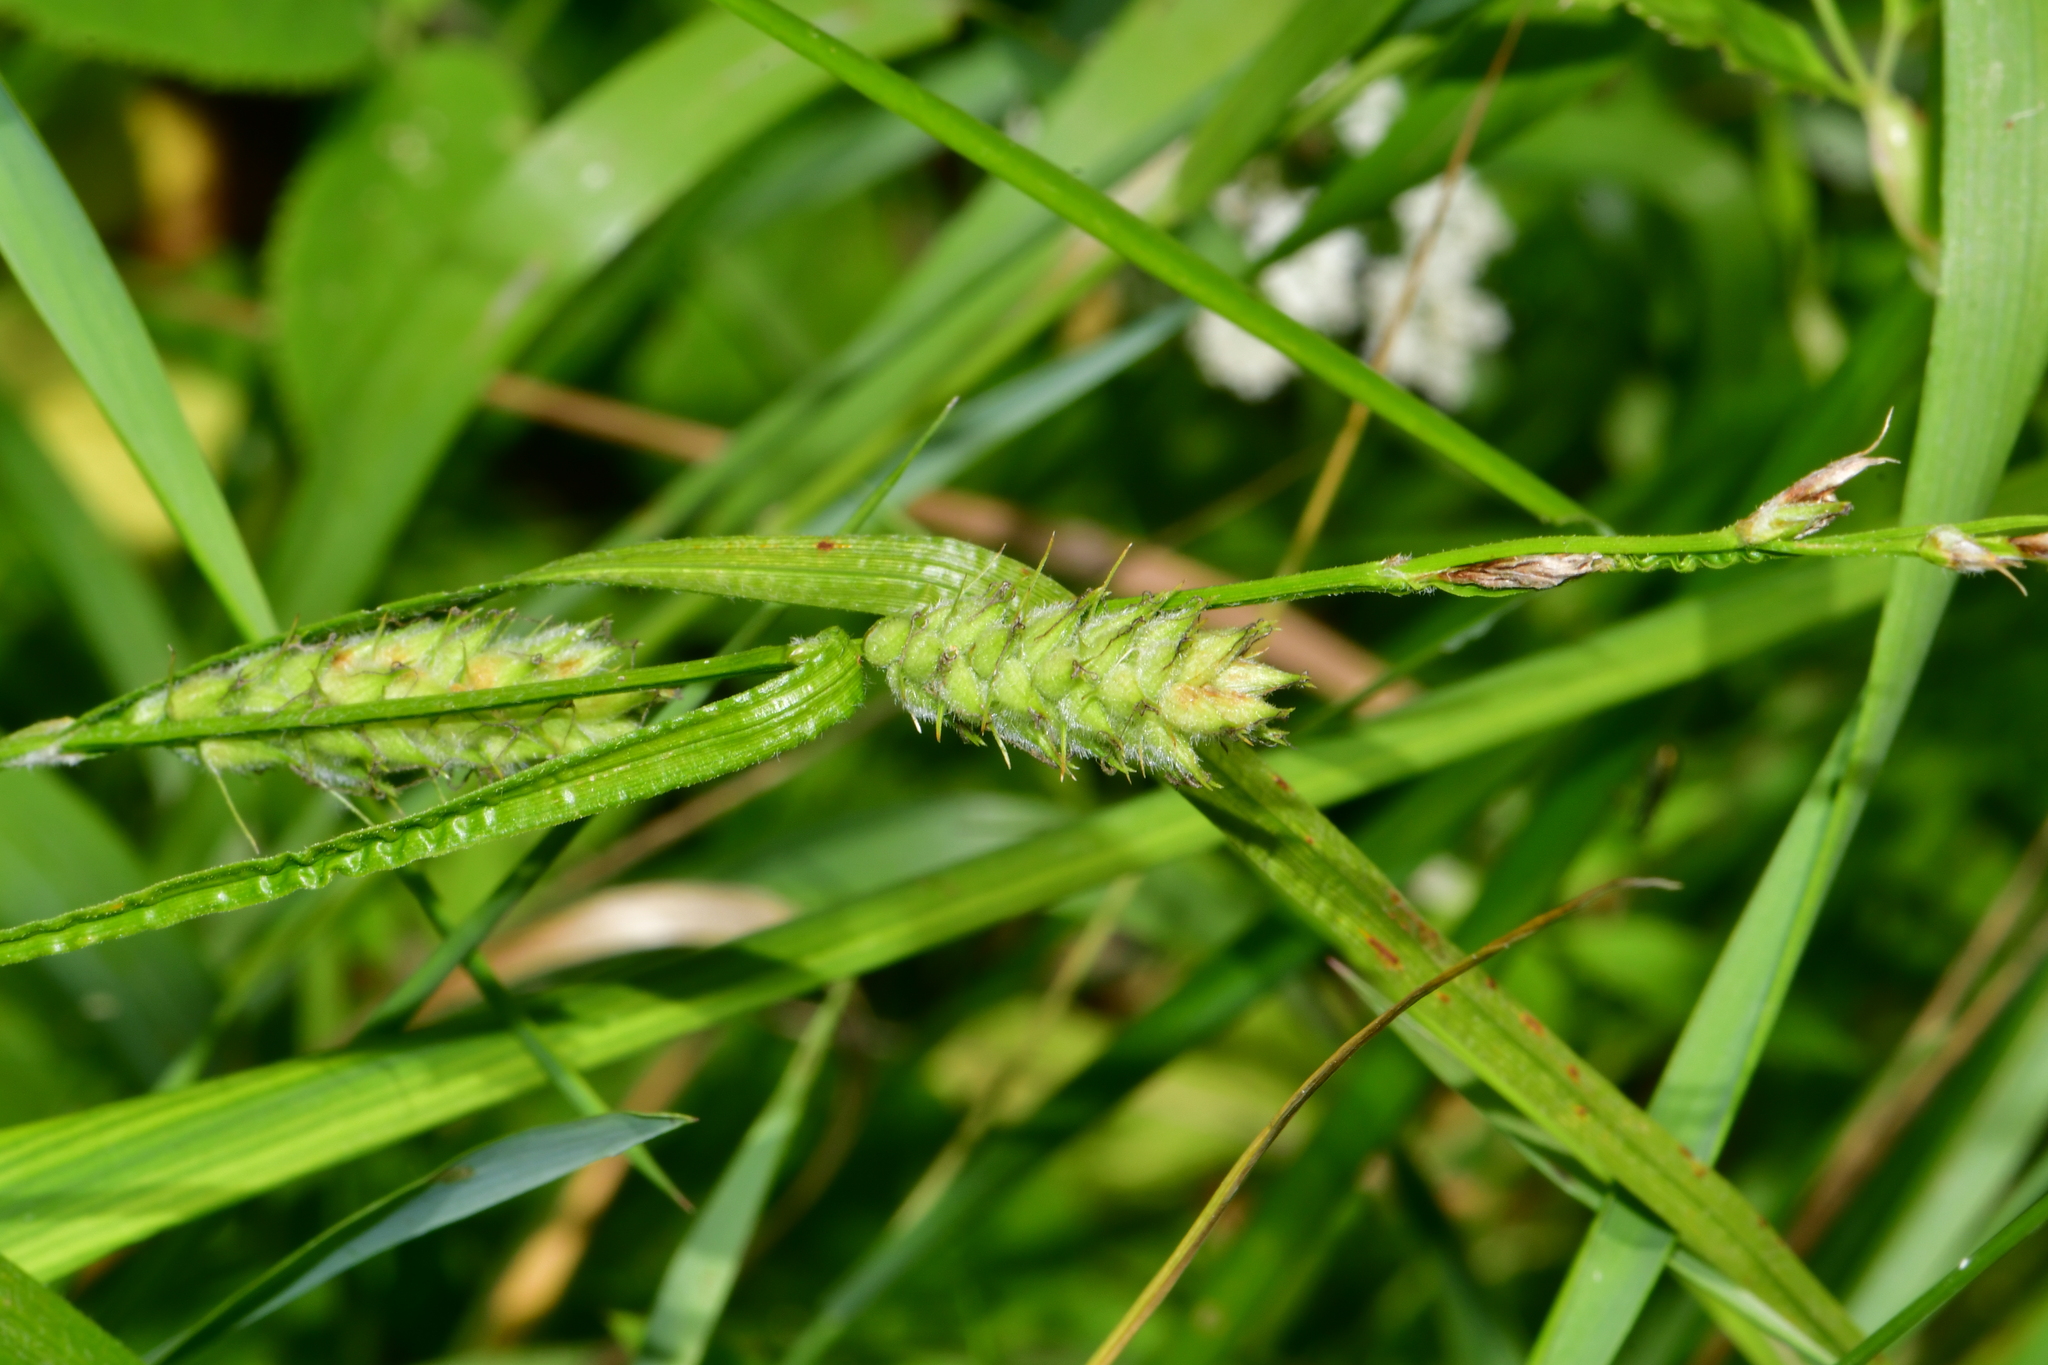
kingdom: Plantae
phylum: Tracheophyta
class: Liliopsida
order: Poales
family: Cyperaceae
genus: Carex
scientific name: Carex hirta
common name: Hairy sedge
